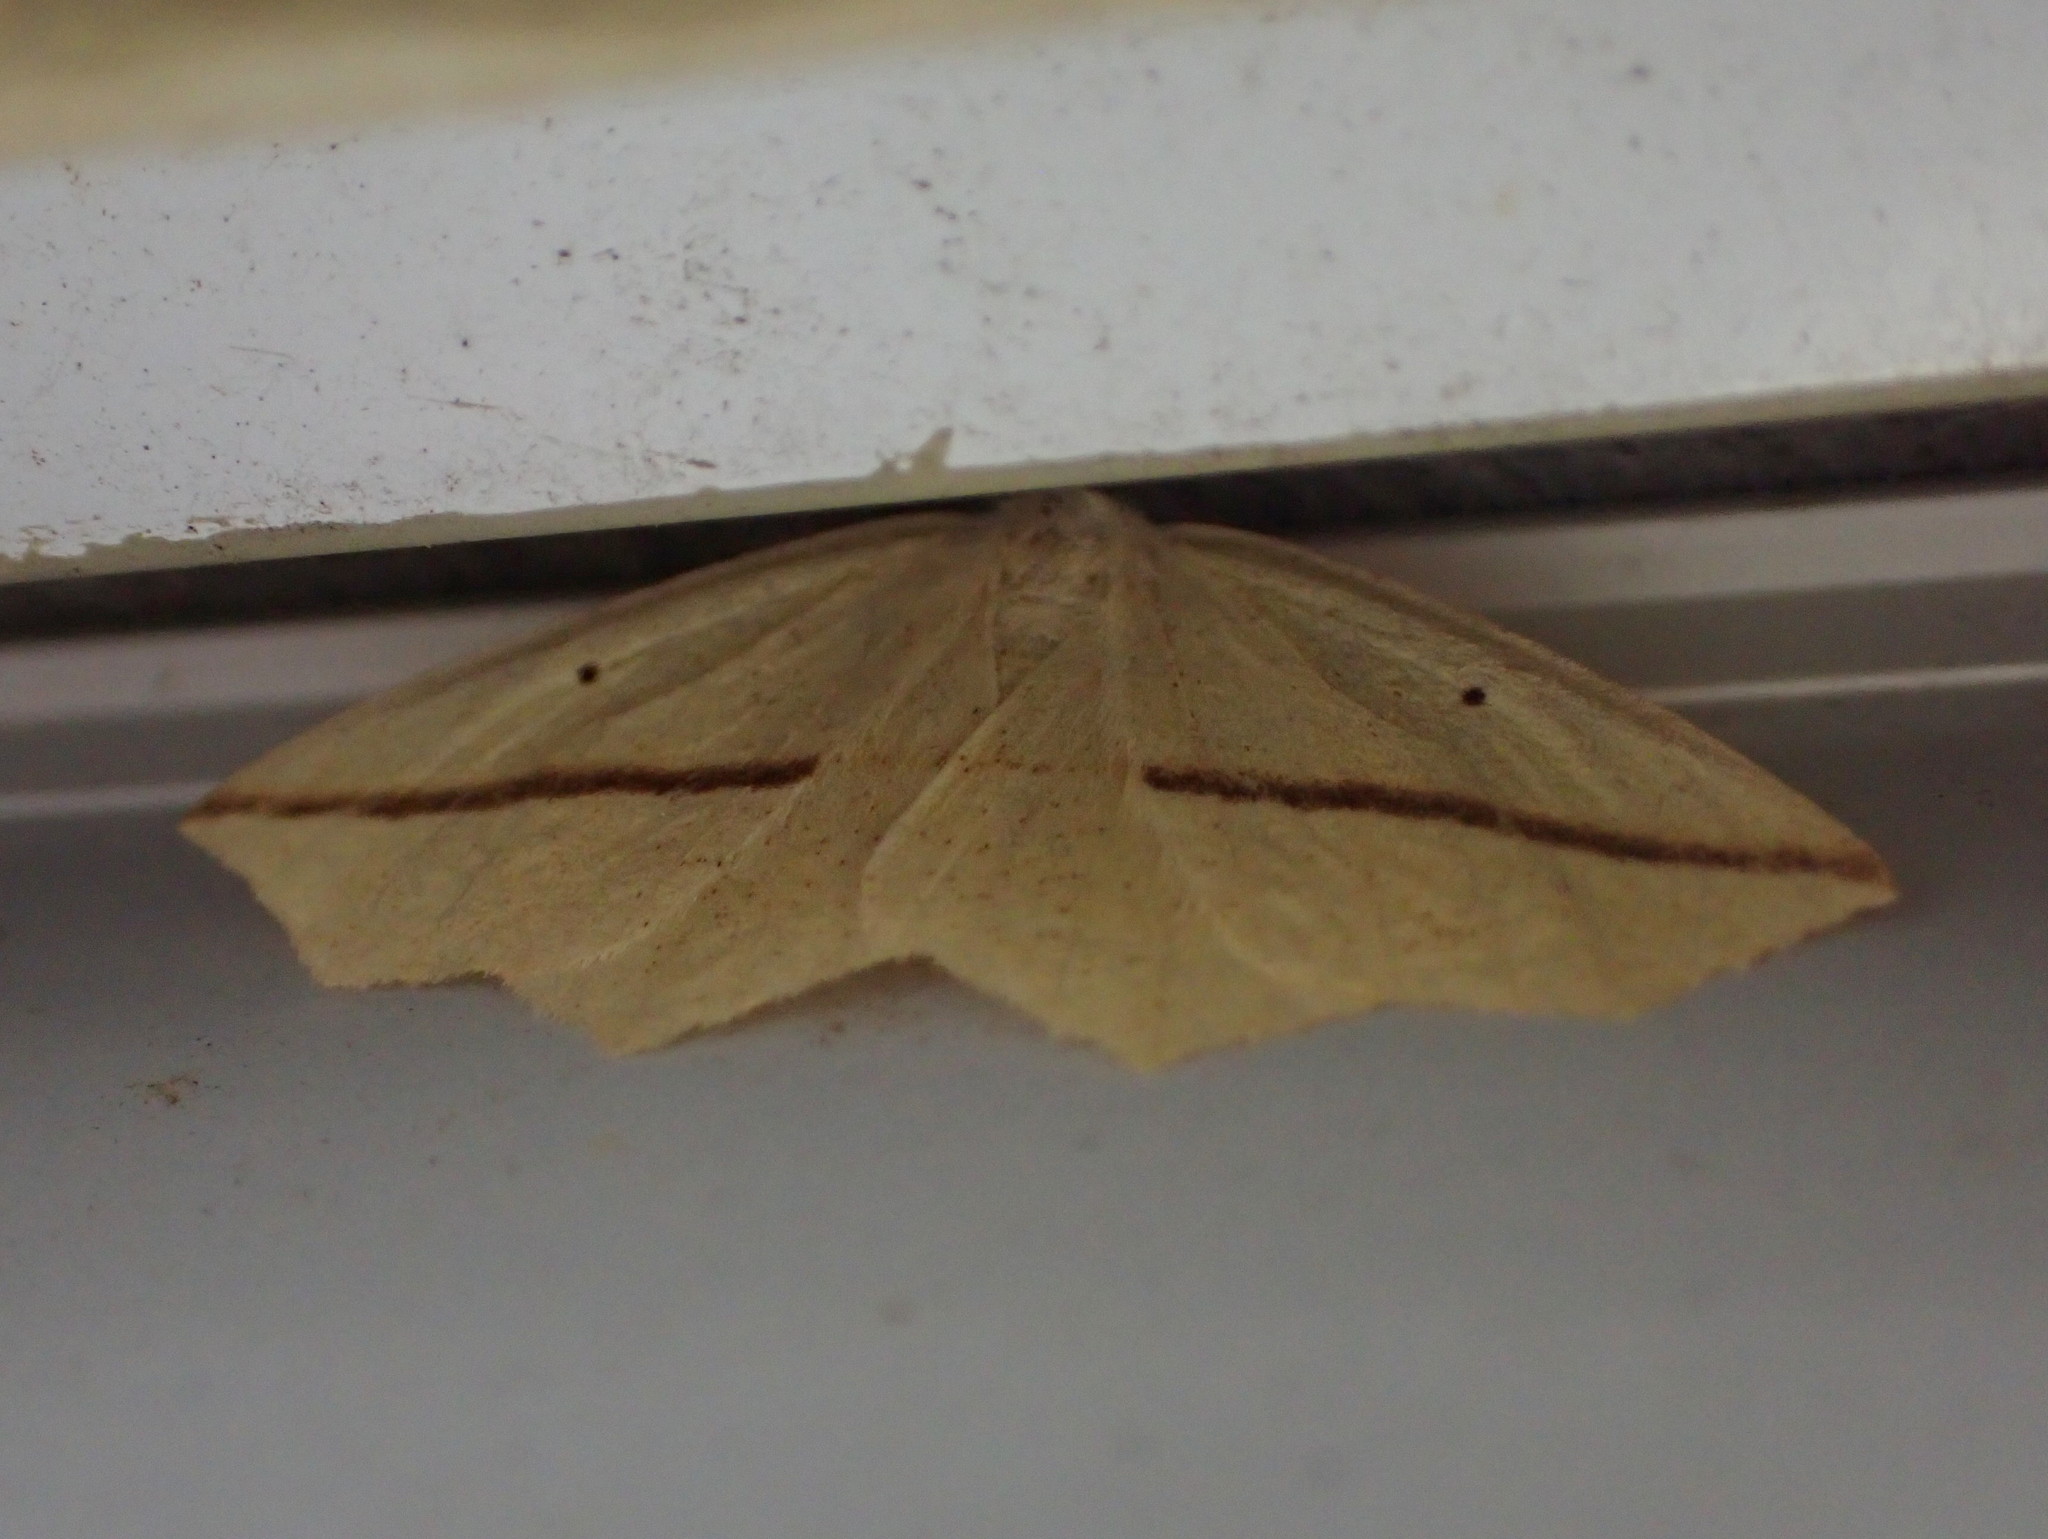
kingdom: Animalia
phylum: Arthropoda
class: Insecta
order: Lepidoptera
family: Geometridae
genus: Tetracis
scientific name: Tetracis crocallata
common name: Yellow slant-line
